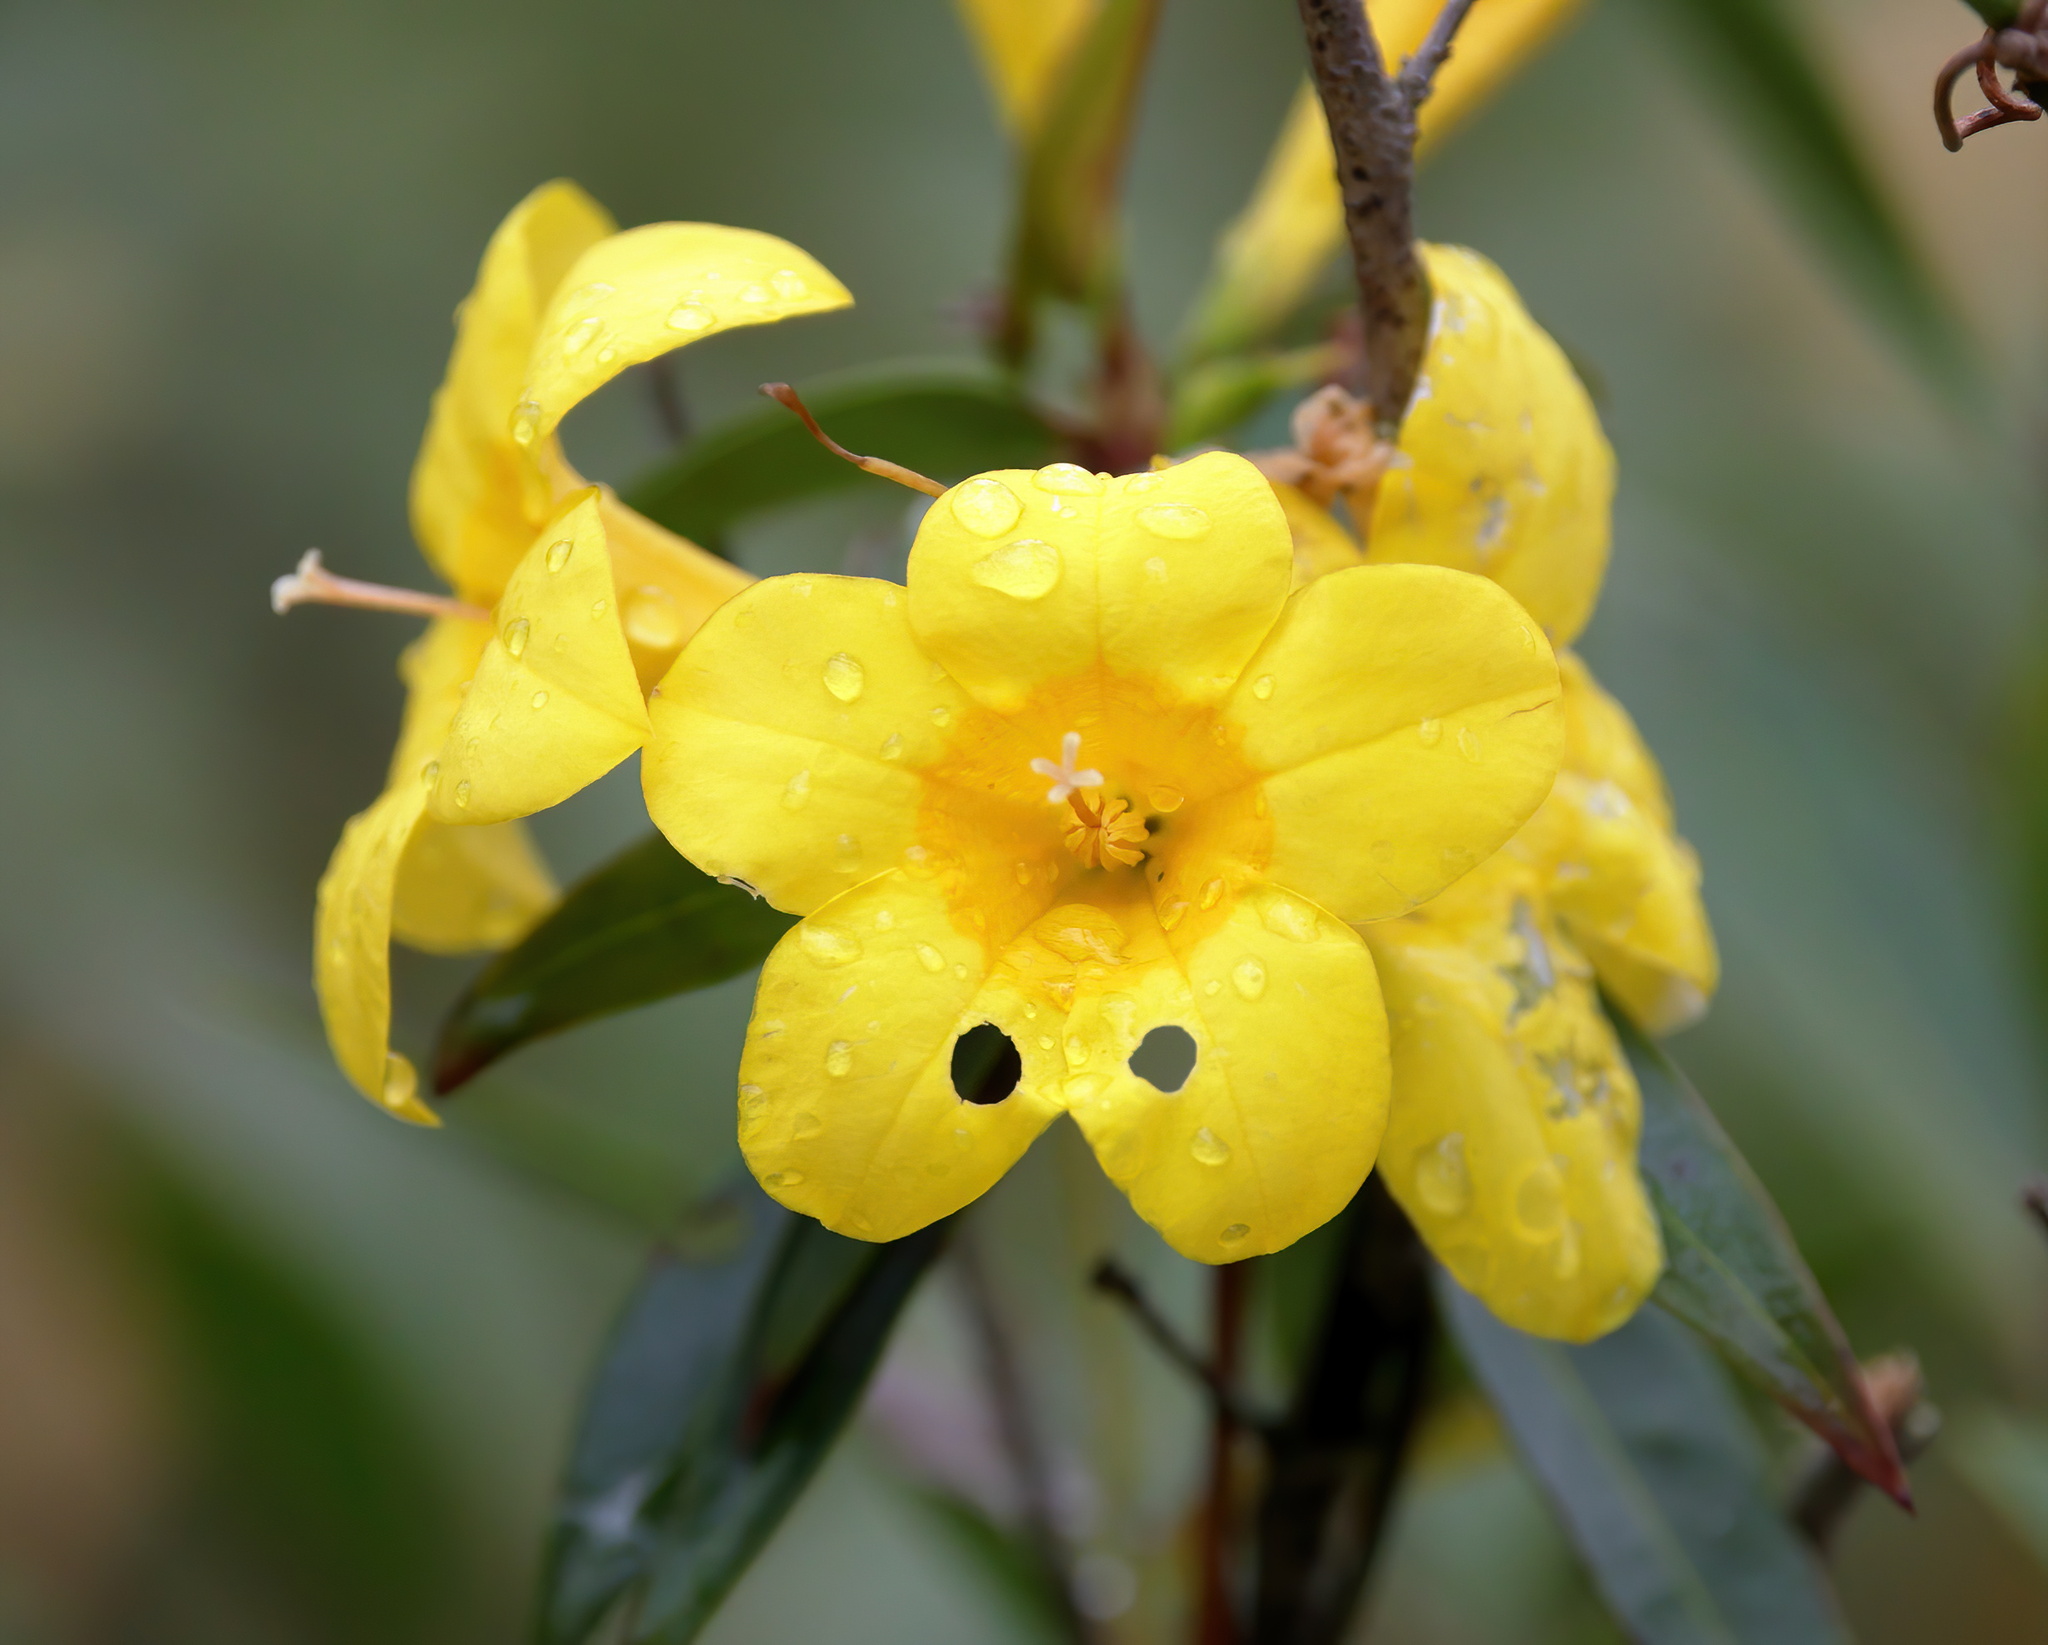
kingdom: Plantae
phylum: Tracheophyta
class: Magnoliopsida
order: Gentianales
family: Gelsemiaceae
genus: Gelsemium
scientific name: Gelsemium sempervirens
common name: Carolina-jasmine
